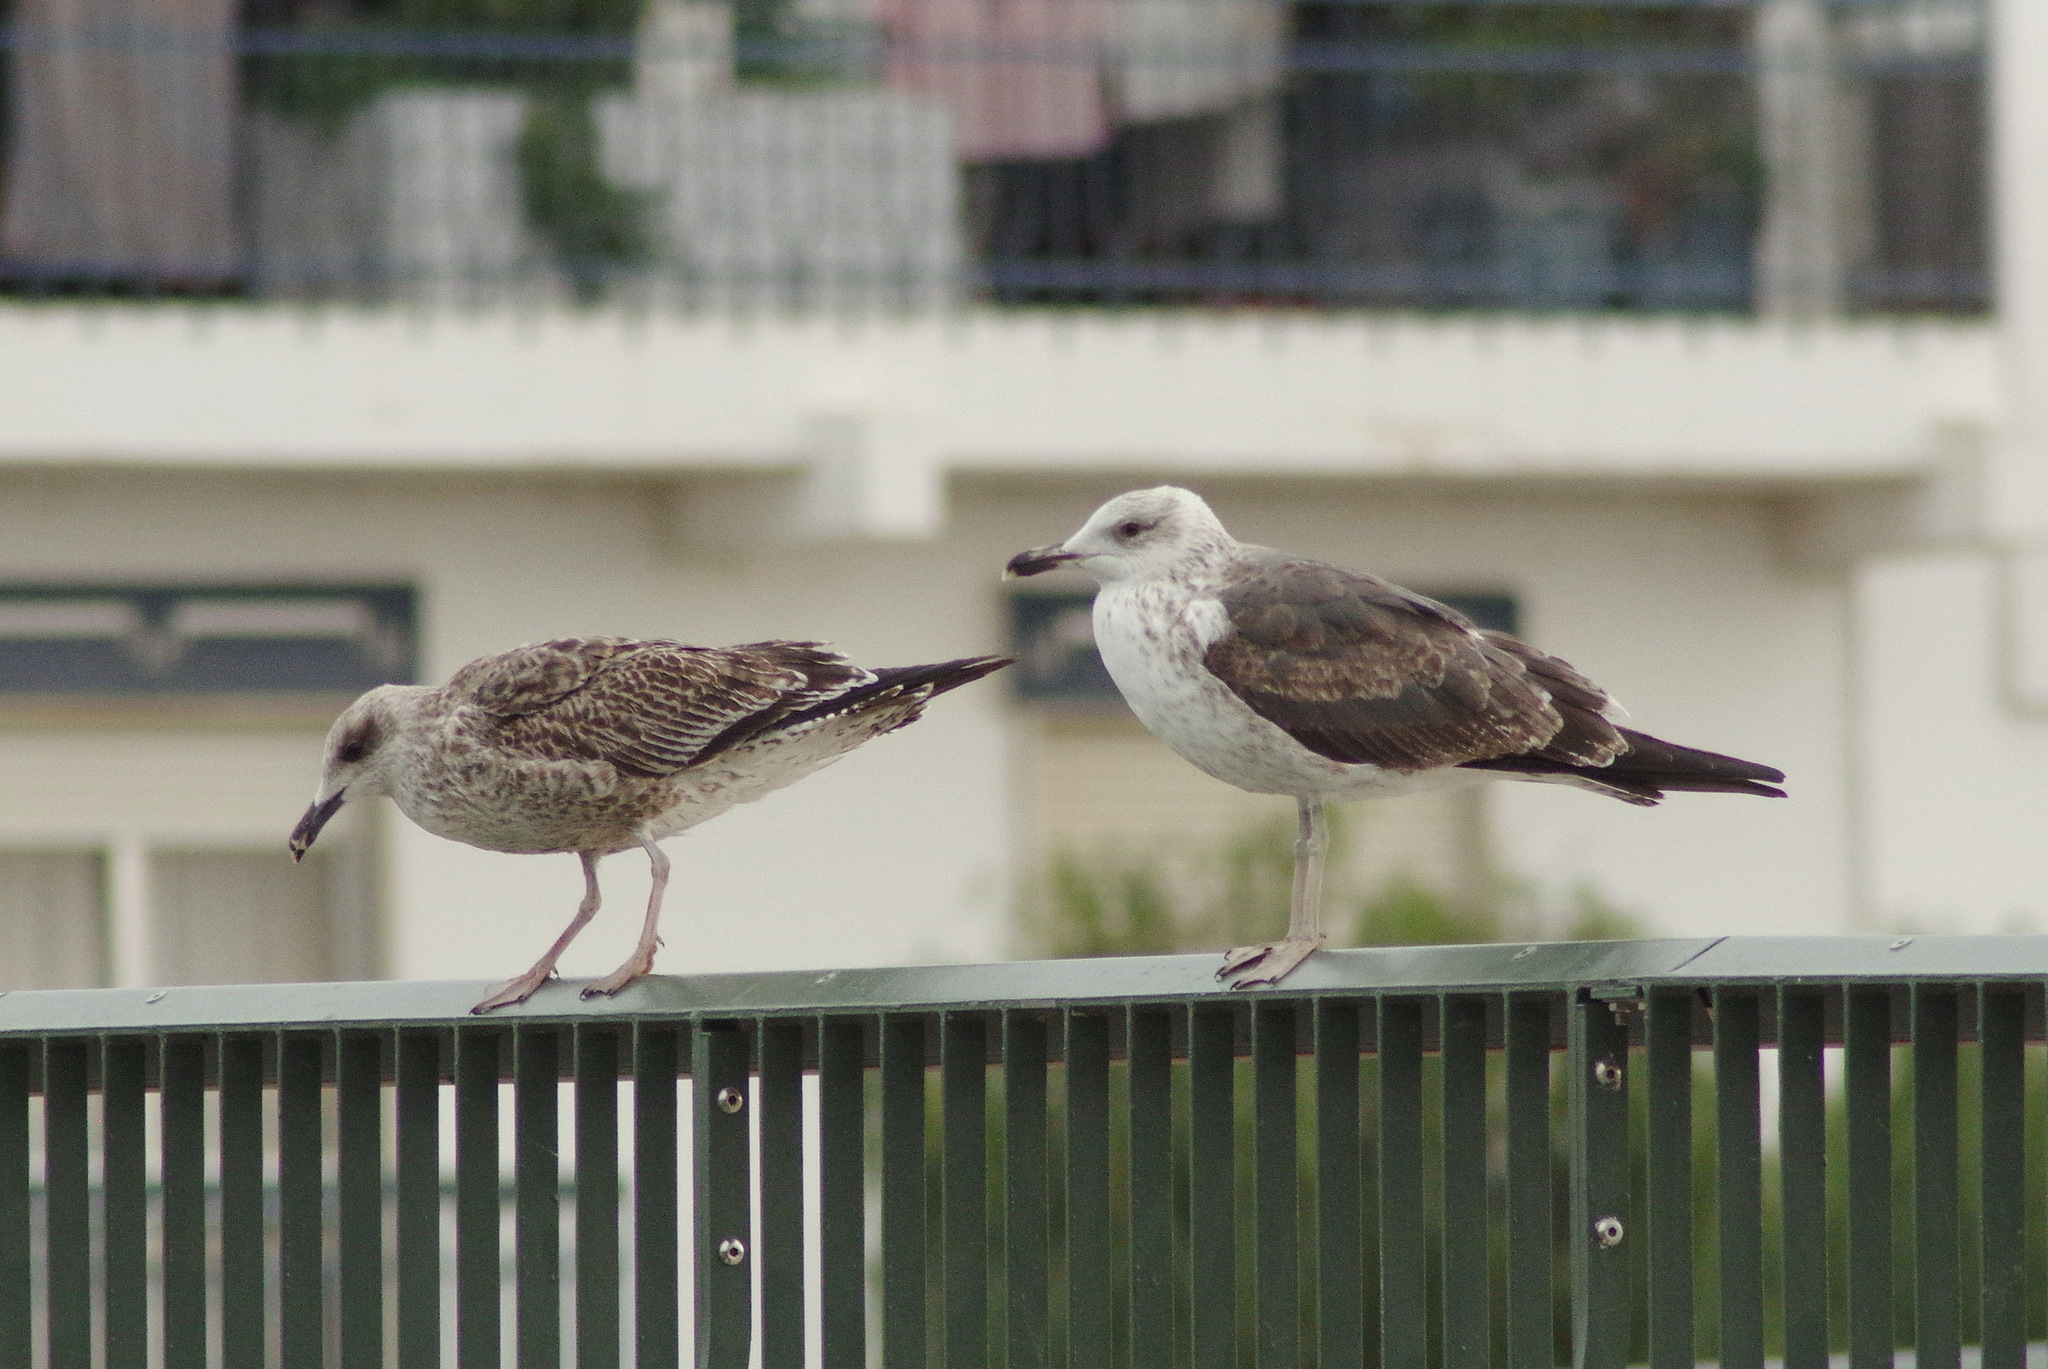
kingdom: Animalia
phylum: Chordata
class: Aves
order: Charadriiformes
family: Laridae
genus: Larus
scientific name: Larus fuscus
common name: Lesser black-backed gull
